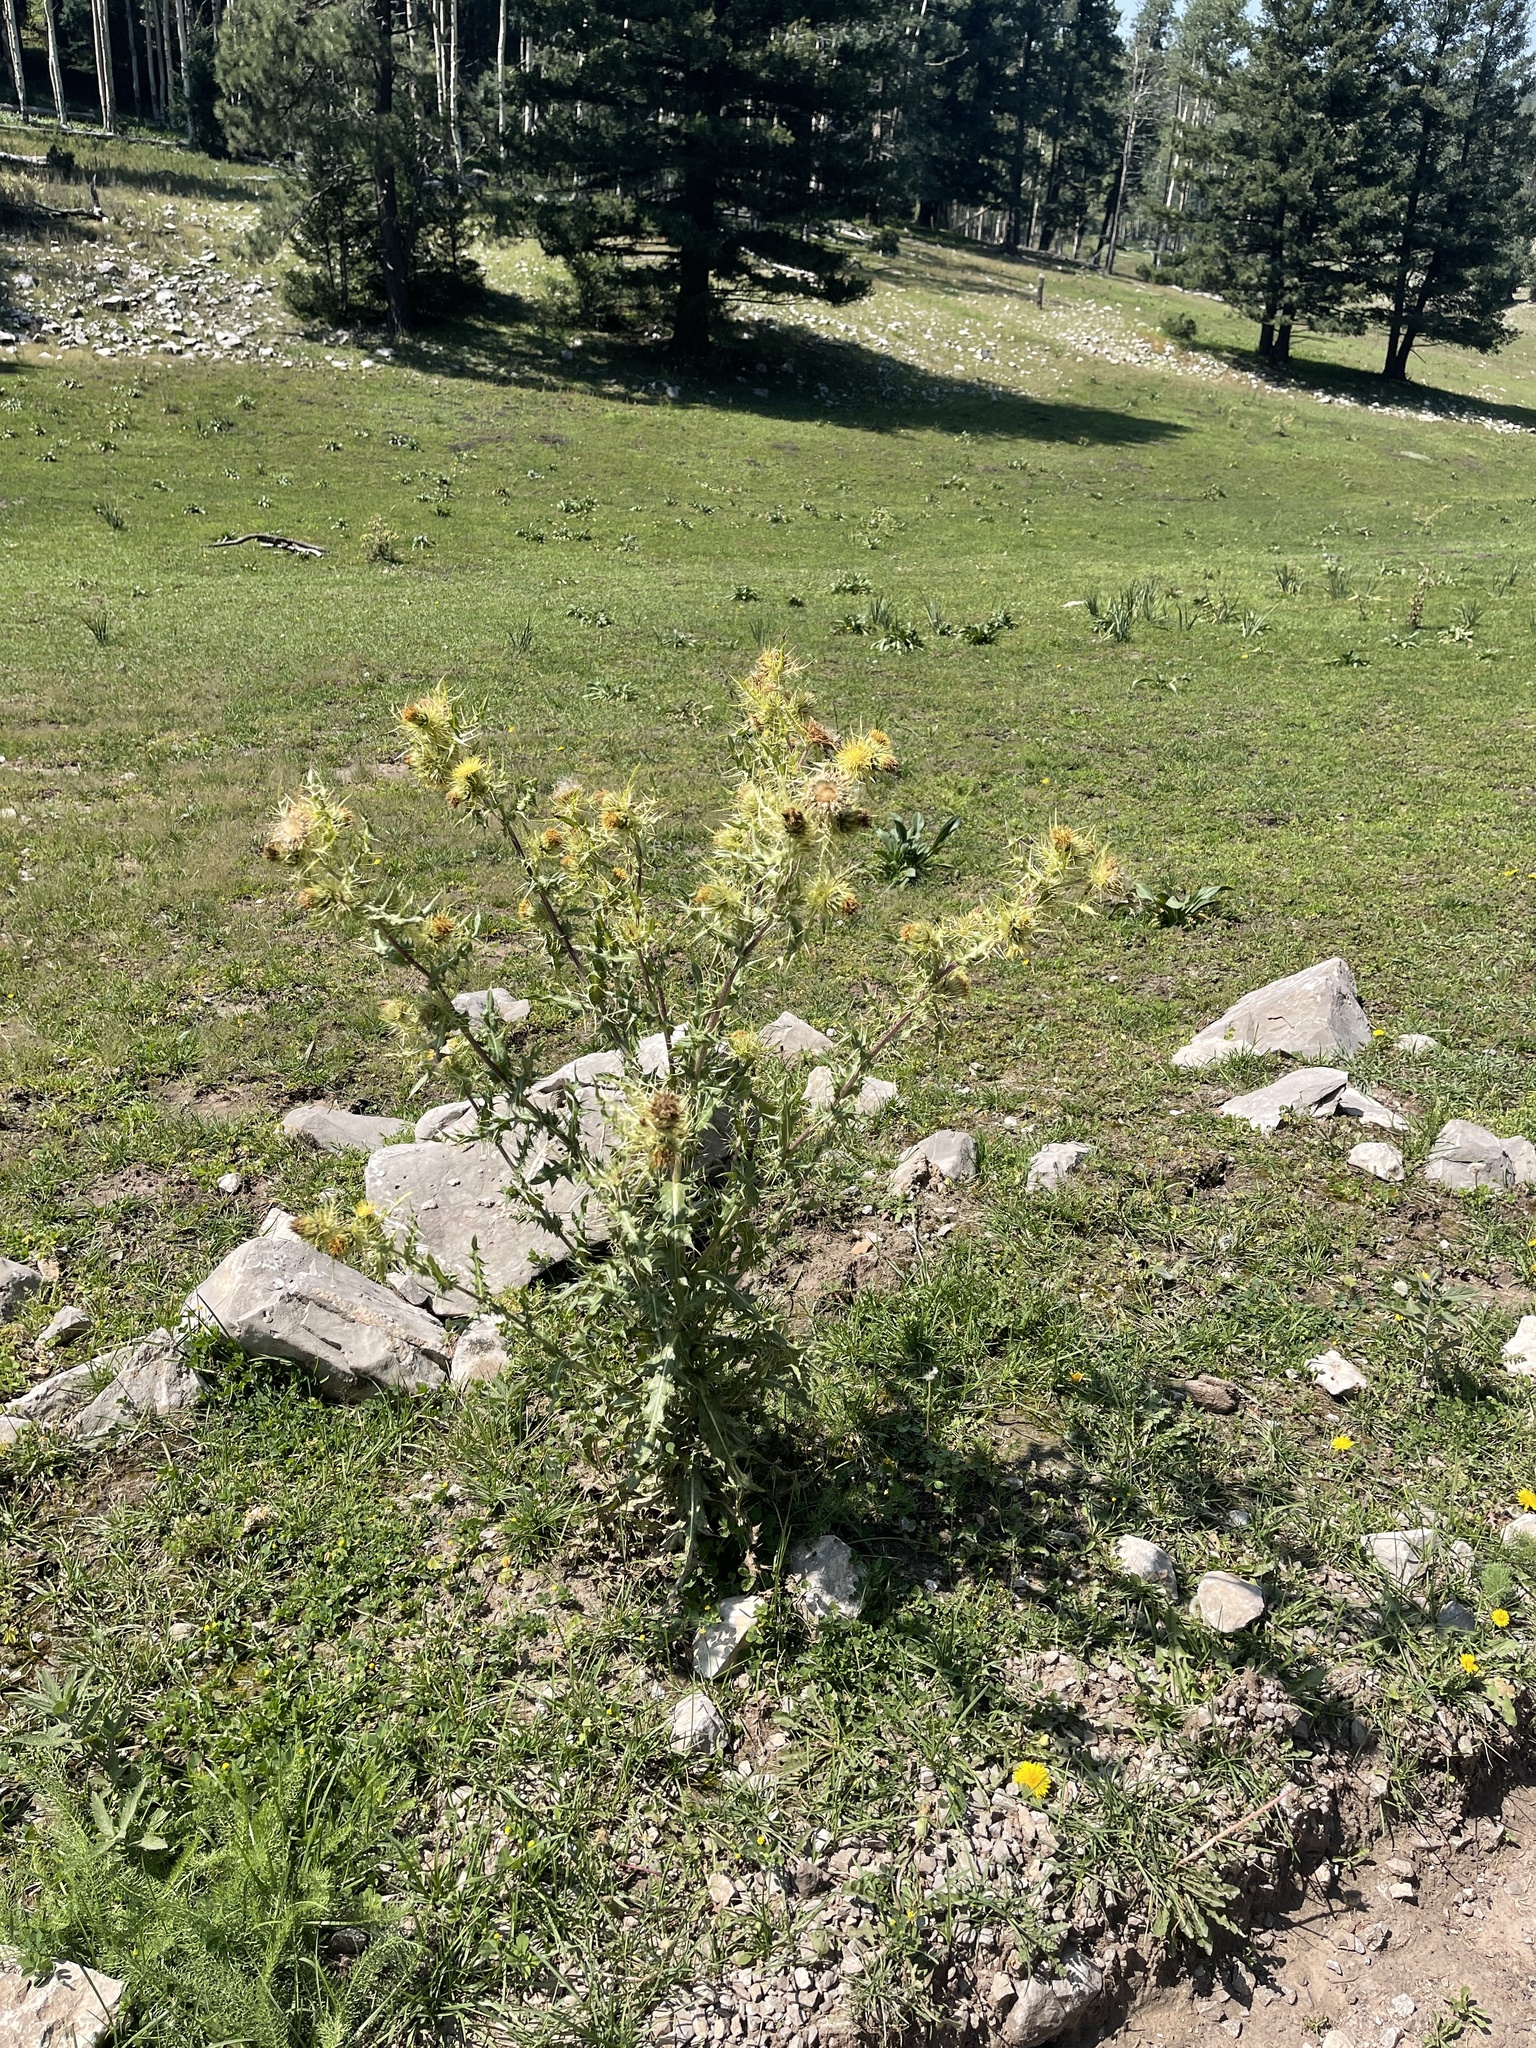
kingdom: Plantae
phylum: Tracheophyta
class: Magnoliopsida
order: Asterales
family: Asteraceae
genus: Cirsium
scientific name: Cirsium parryi
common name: Parry's thistle
